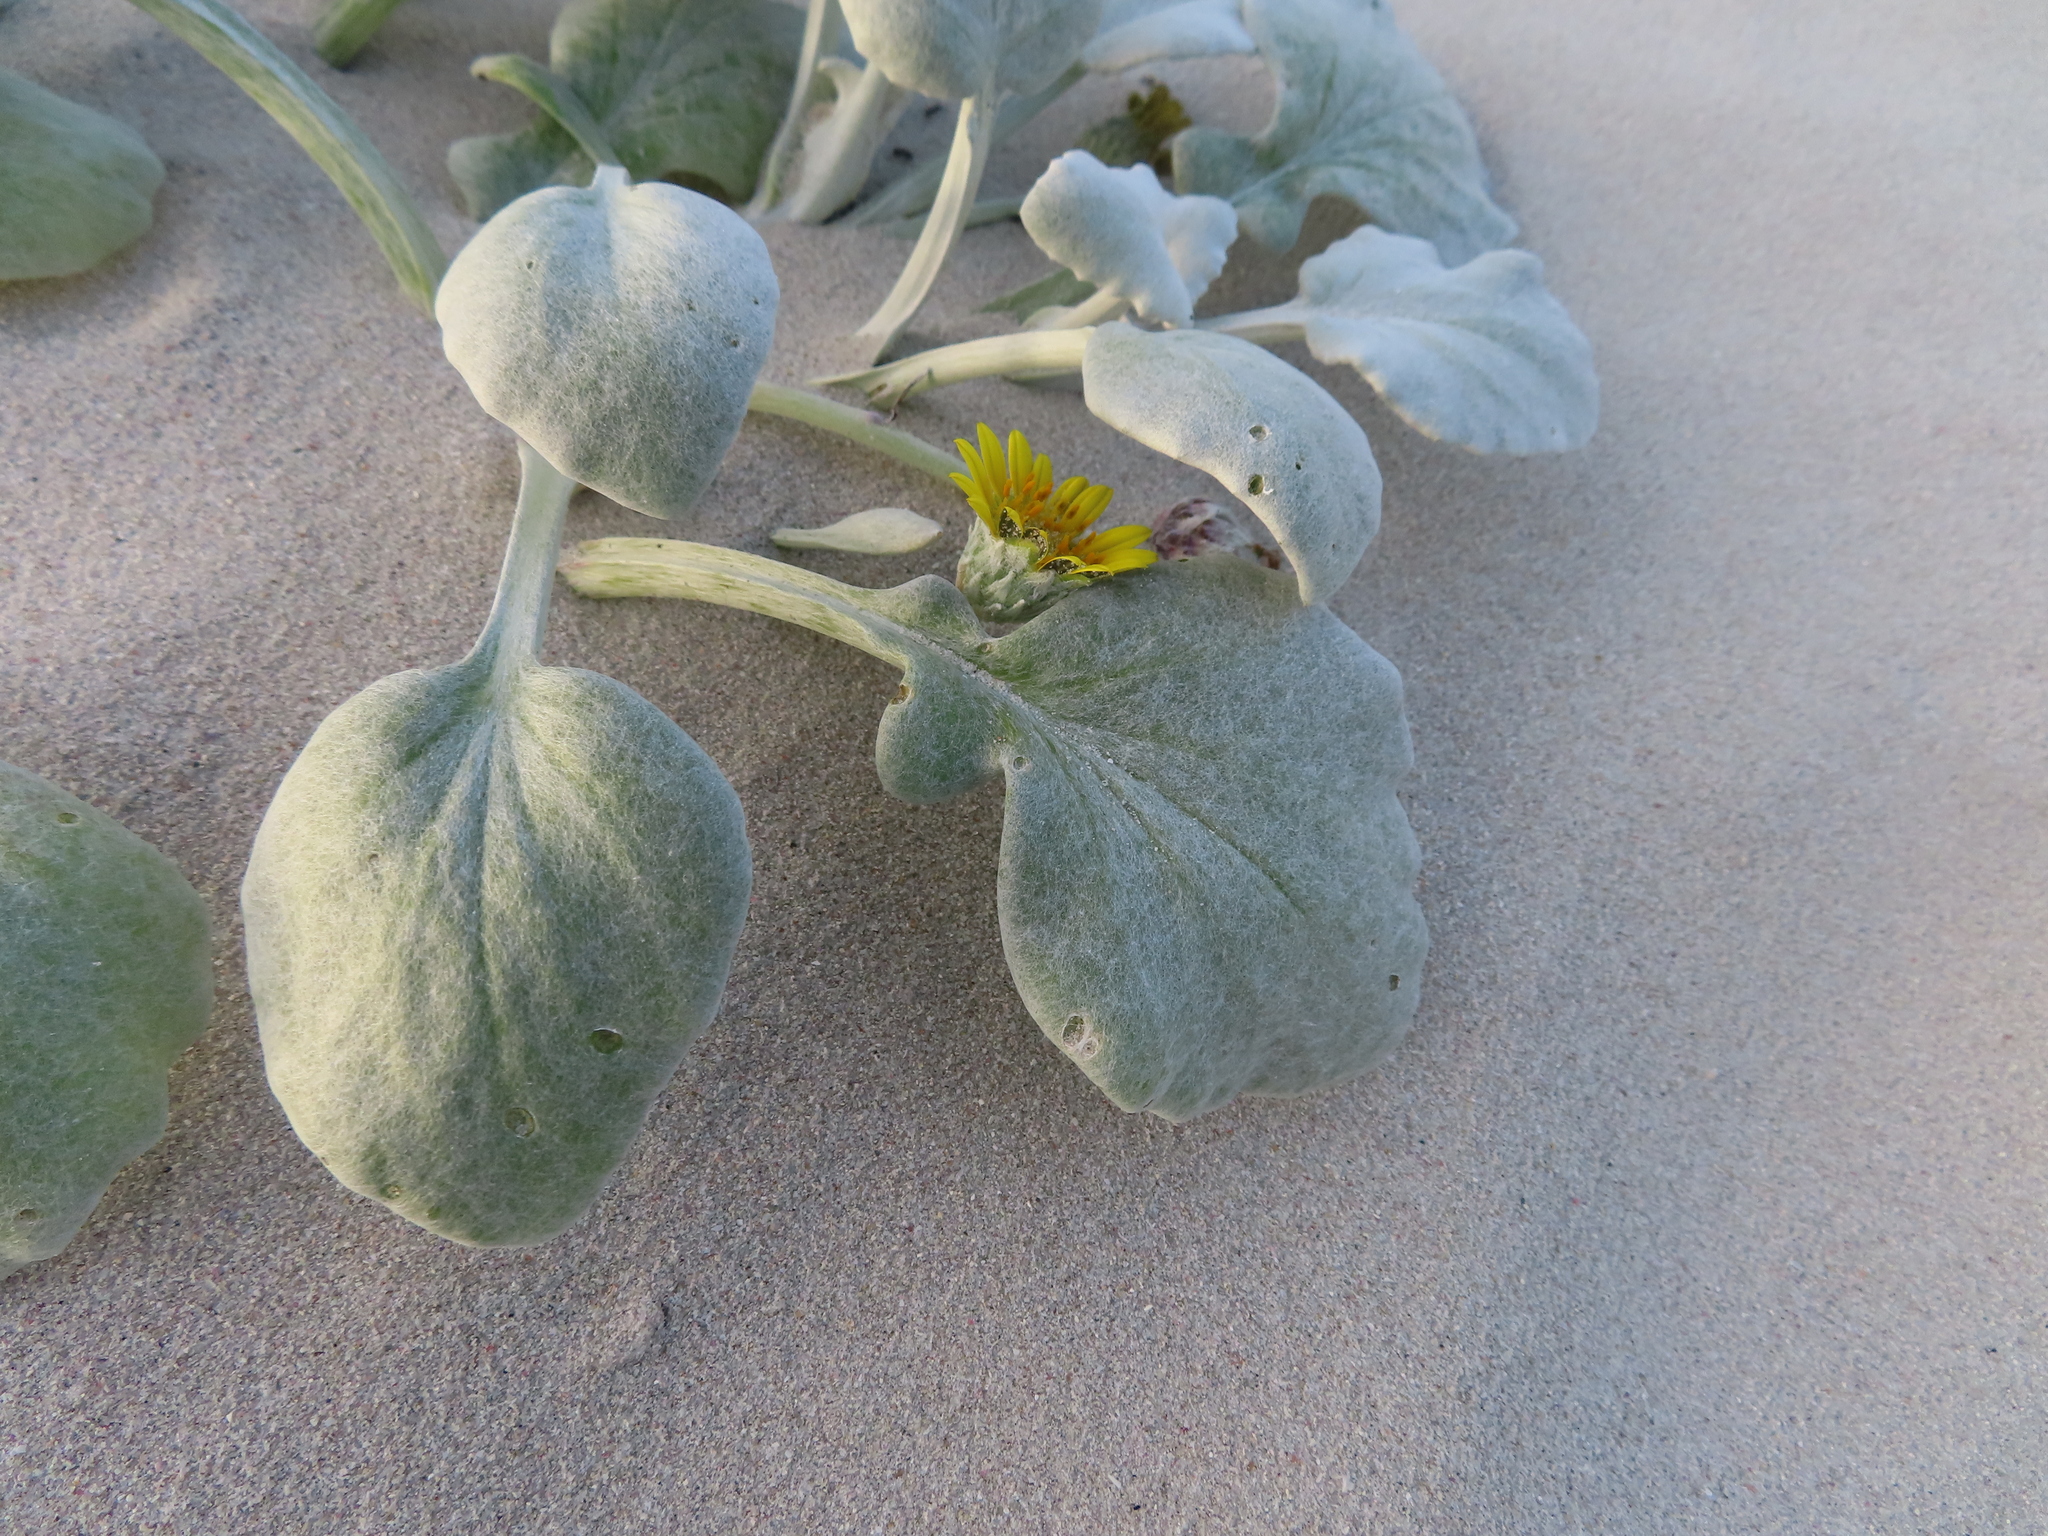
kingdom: Plantae
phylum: Tracheophyta
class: Magnoliopsida
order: Asterales
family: Asteraceae
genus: Arctotheca
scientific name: Arctotheca populifolia
